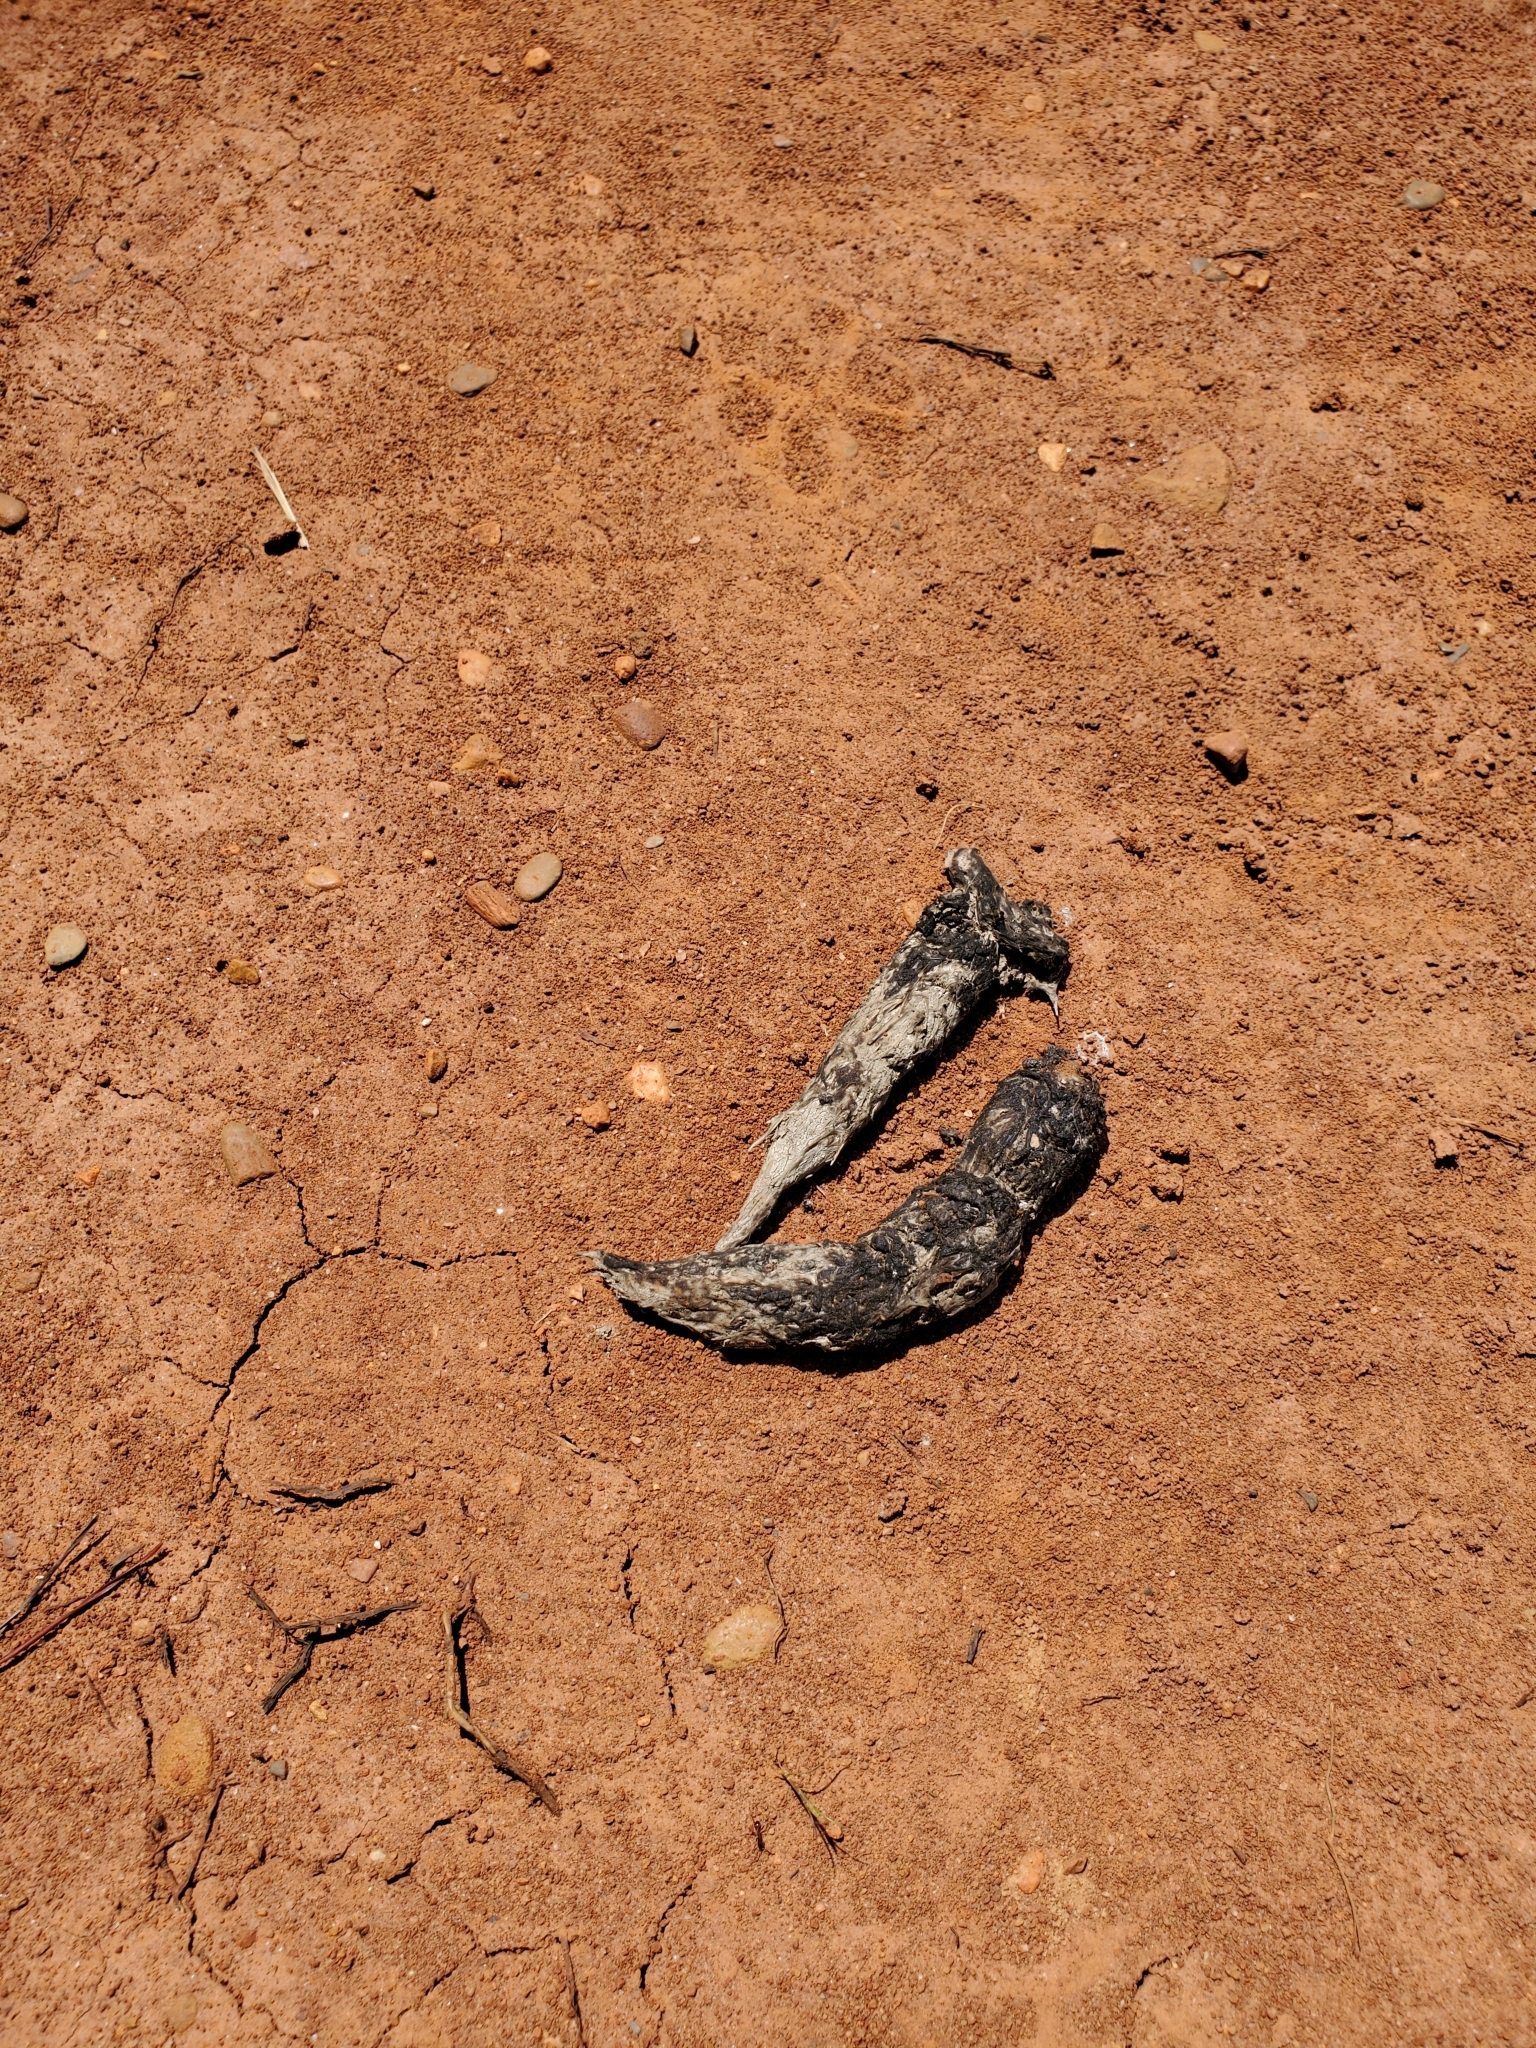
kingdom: Animalia
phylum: Chordata
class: Mammalia
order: Carnivora
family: Canidae
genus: Canis
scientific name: Canis latrans
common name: Coyote
